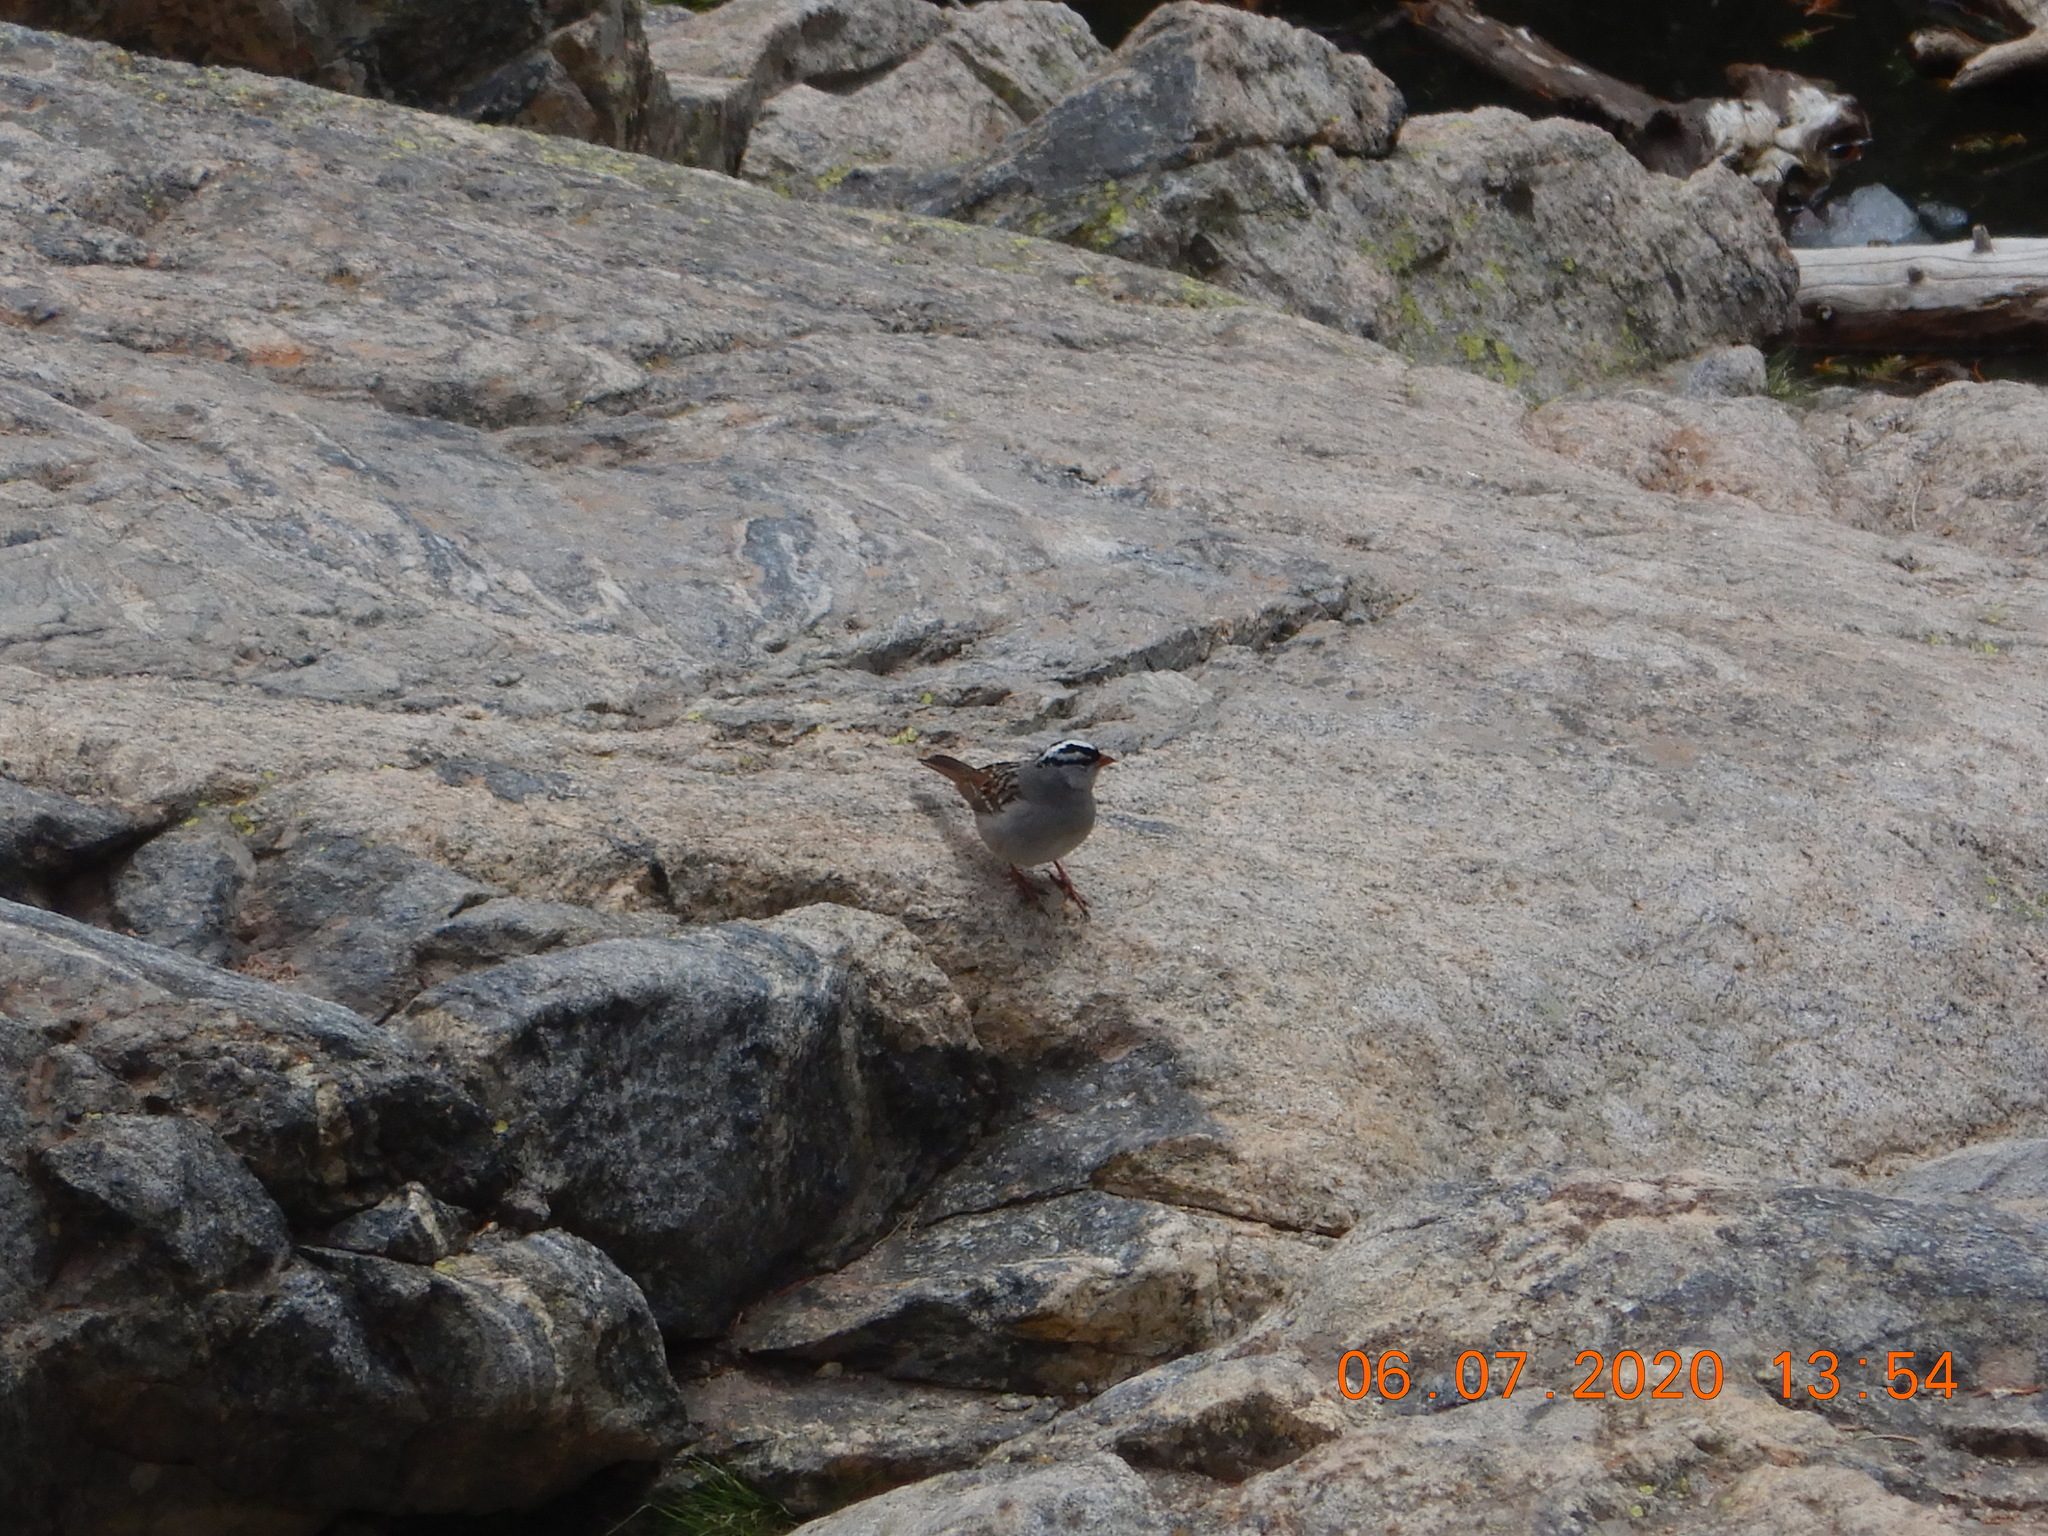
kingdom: Animalia
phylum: Chordata
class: Aves
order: Passeriformes
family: Passerellidae
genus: Junco
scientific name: Junco hyemalis
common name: Dark-eyed junco
